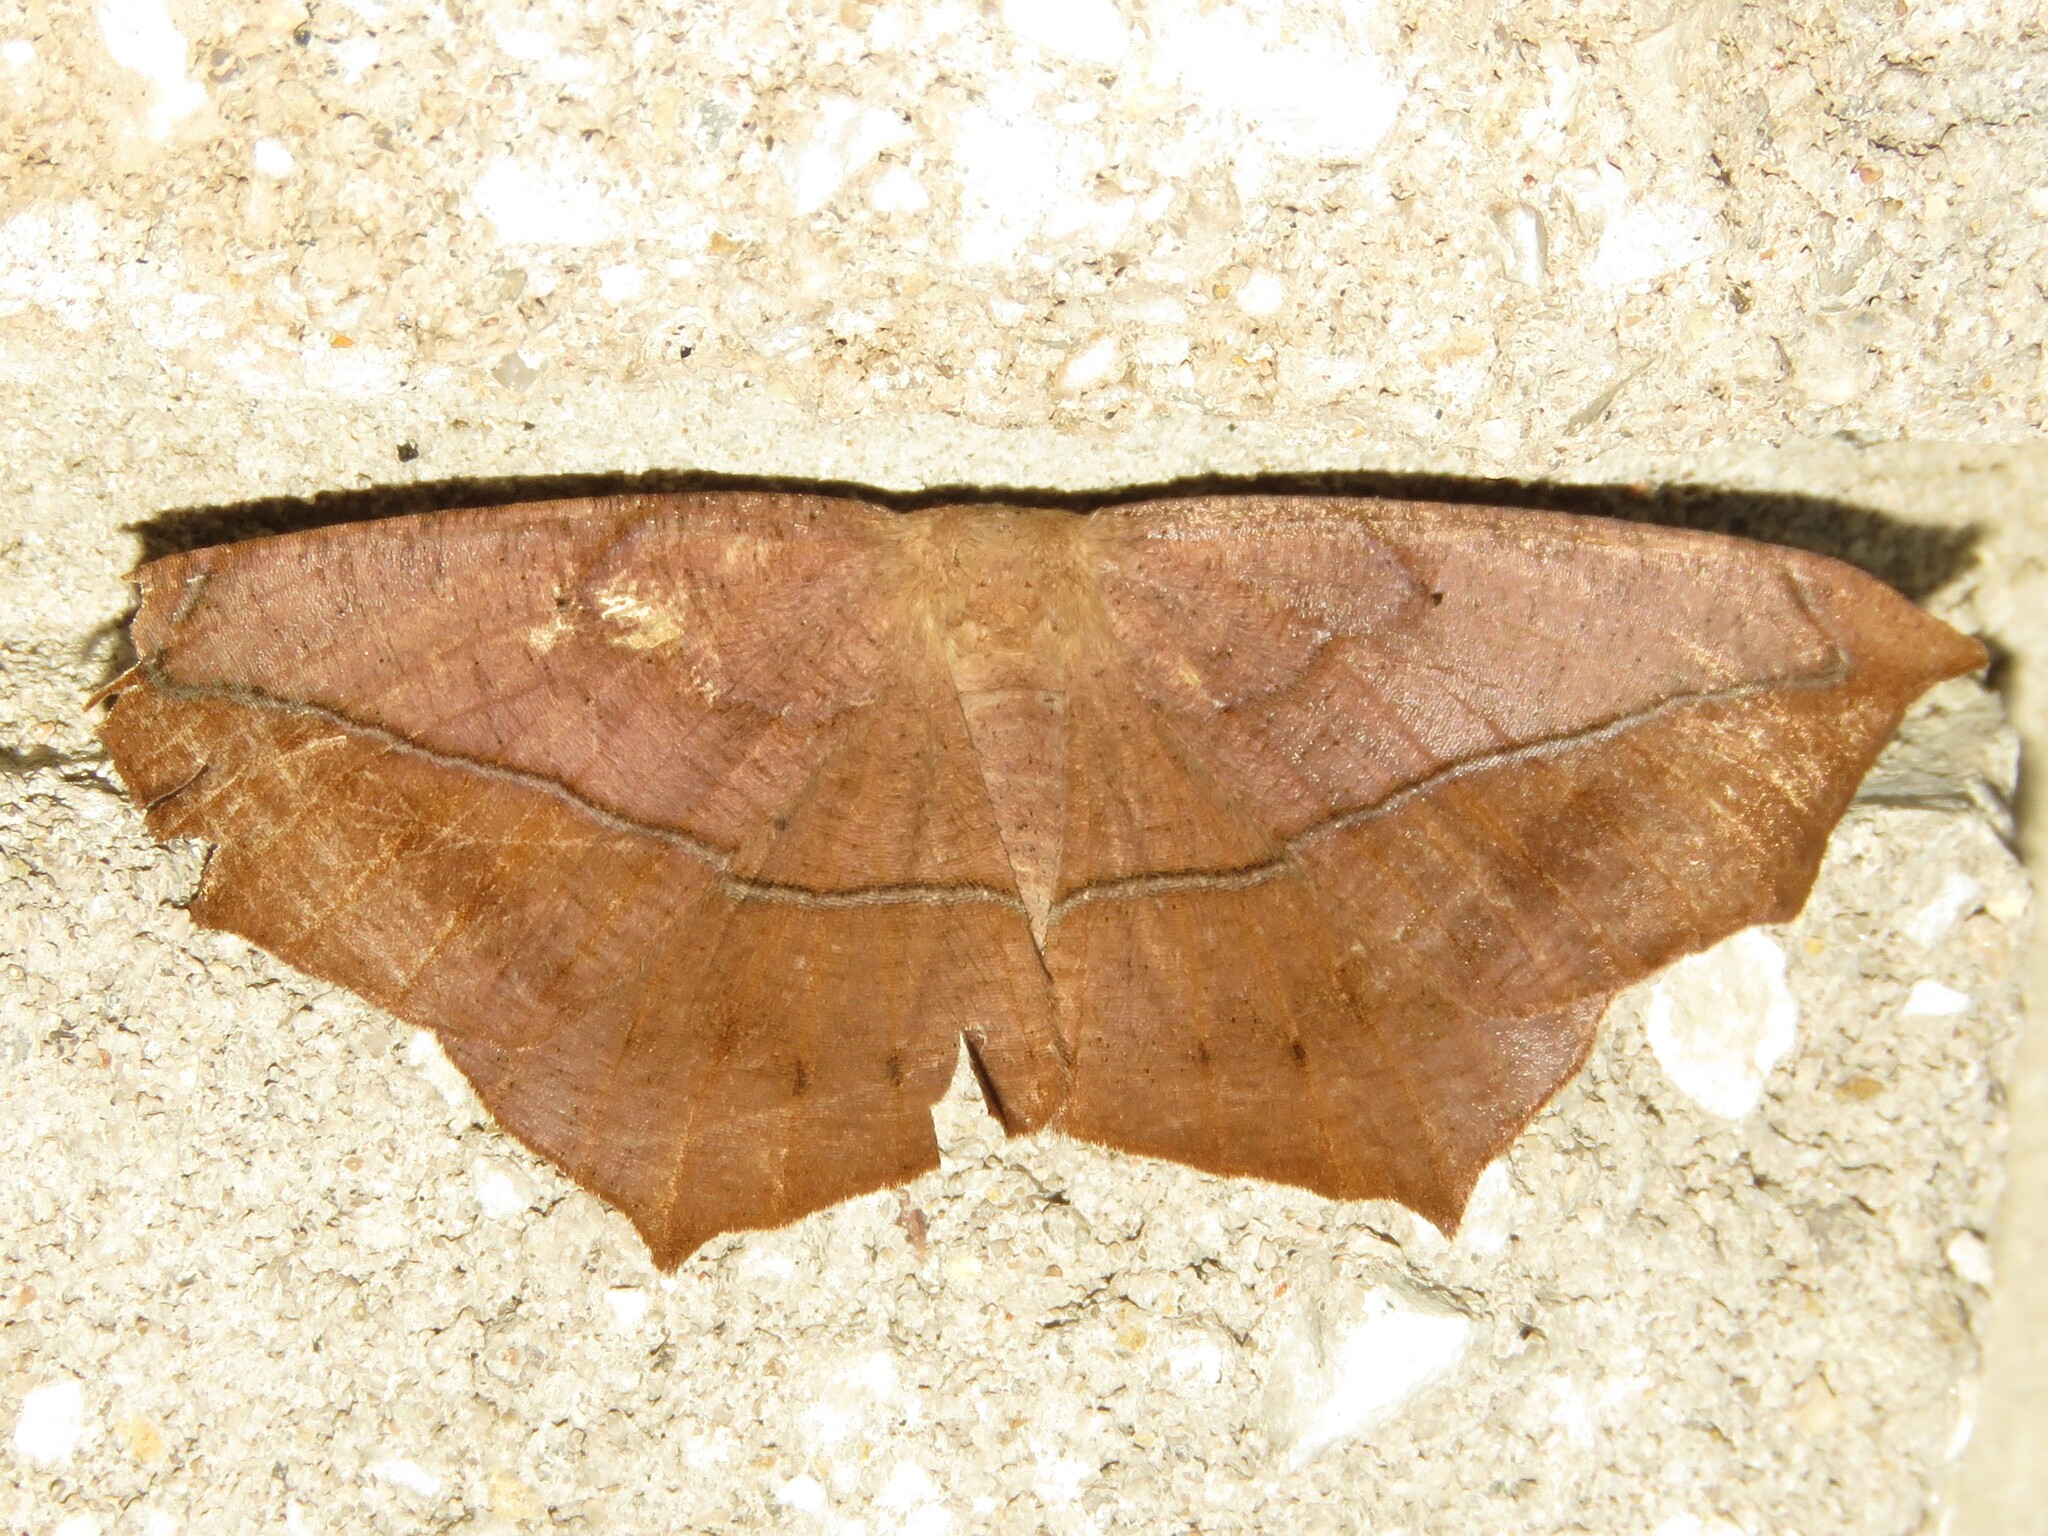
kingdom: Animalia
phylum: Arthropoda
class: Insecta
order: Lepidoptera
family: Geometridae
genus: Prochoerodes
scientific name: Prochoerodes lineola
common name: Large maple spanworm
